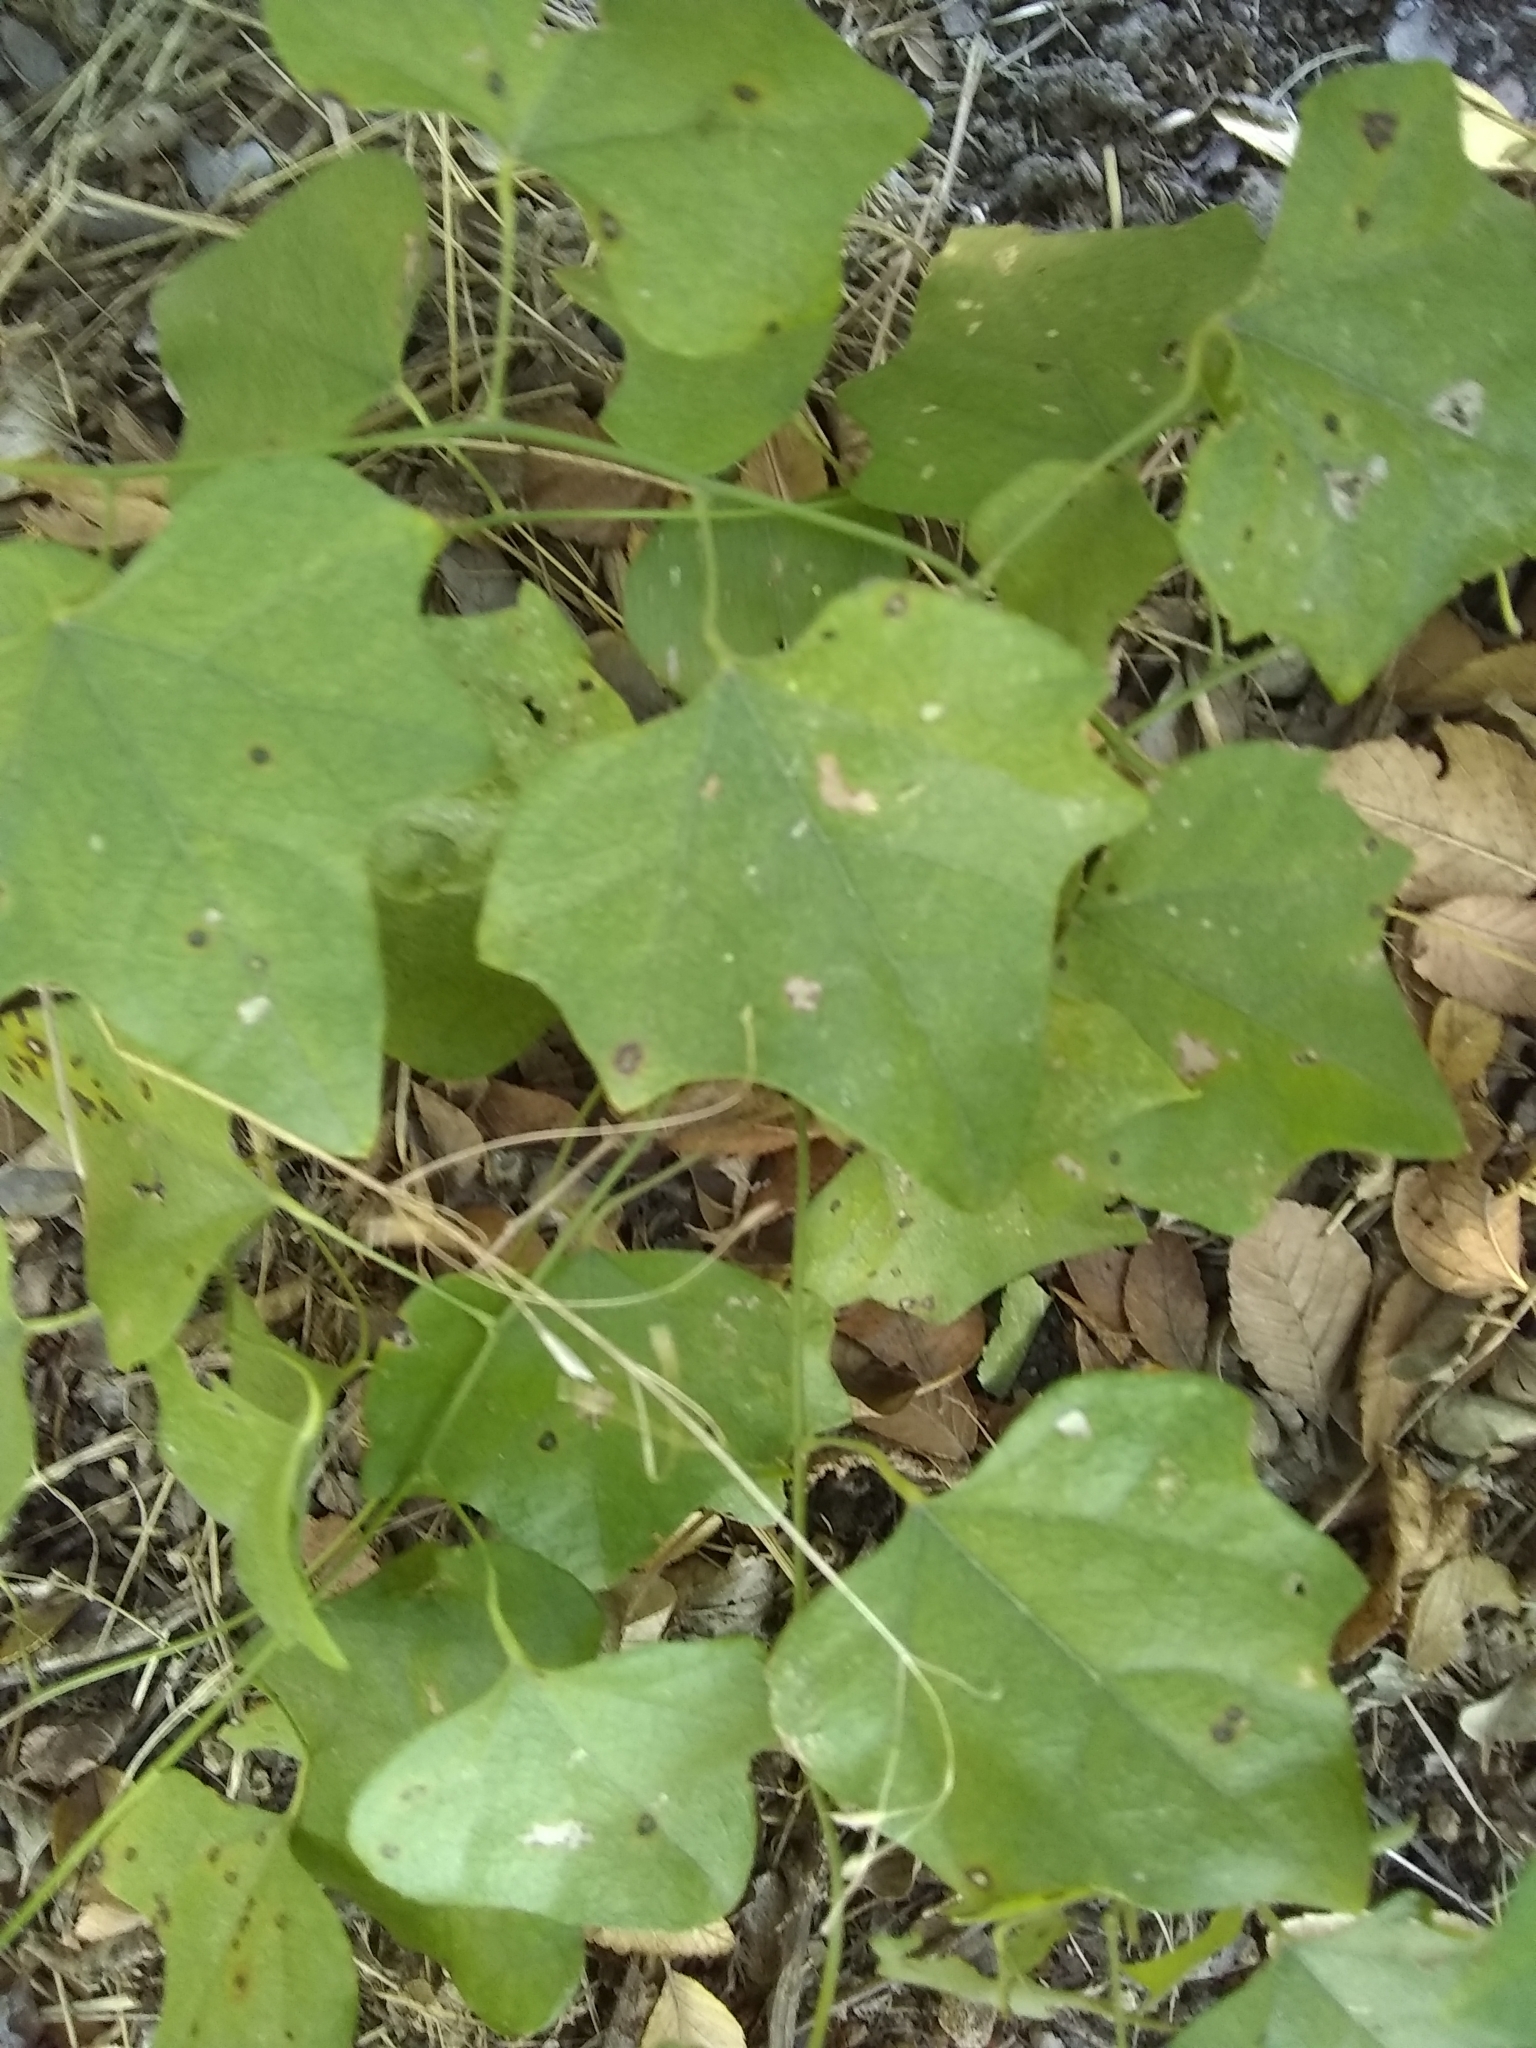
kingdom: Plantae
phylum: Tracheophyta
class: Magnoliopsida
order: Ranunculales
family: Menispermaceae
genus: Cocculus
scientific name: Cocculus carolinus
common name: Carolina moonseed
